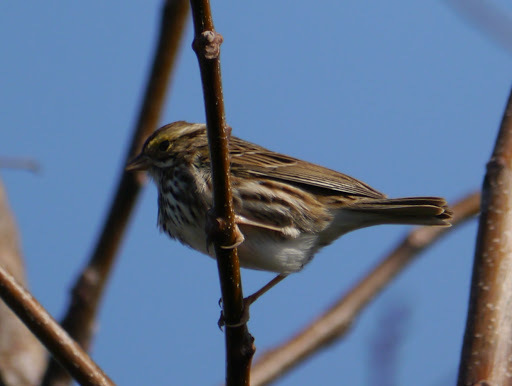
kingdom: Animalia
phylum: Chordata
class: Aves
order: Passeriformes
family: Passerellidae
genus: Passerculus
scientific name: Passerculus sandwichensis
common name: Savannah sparrow
